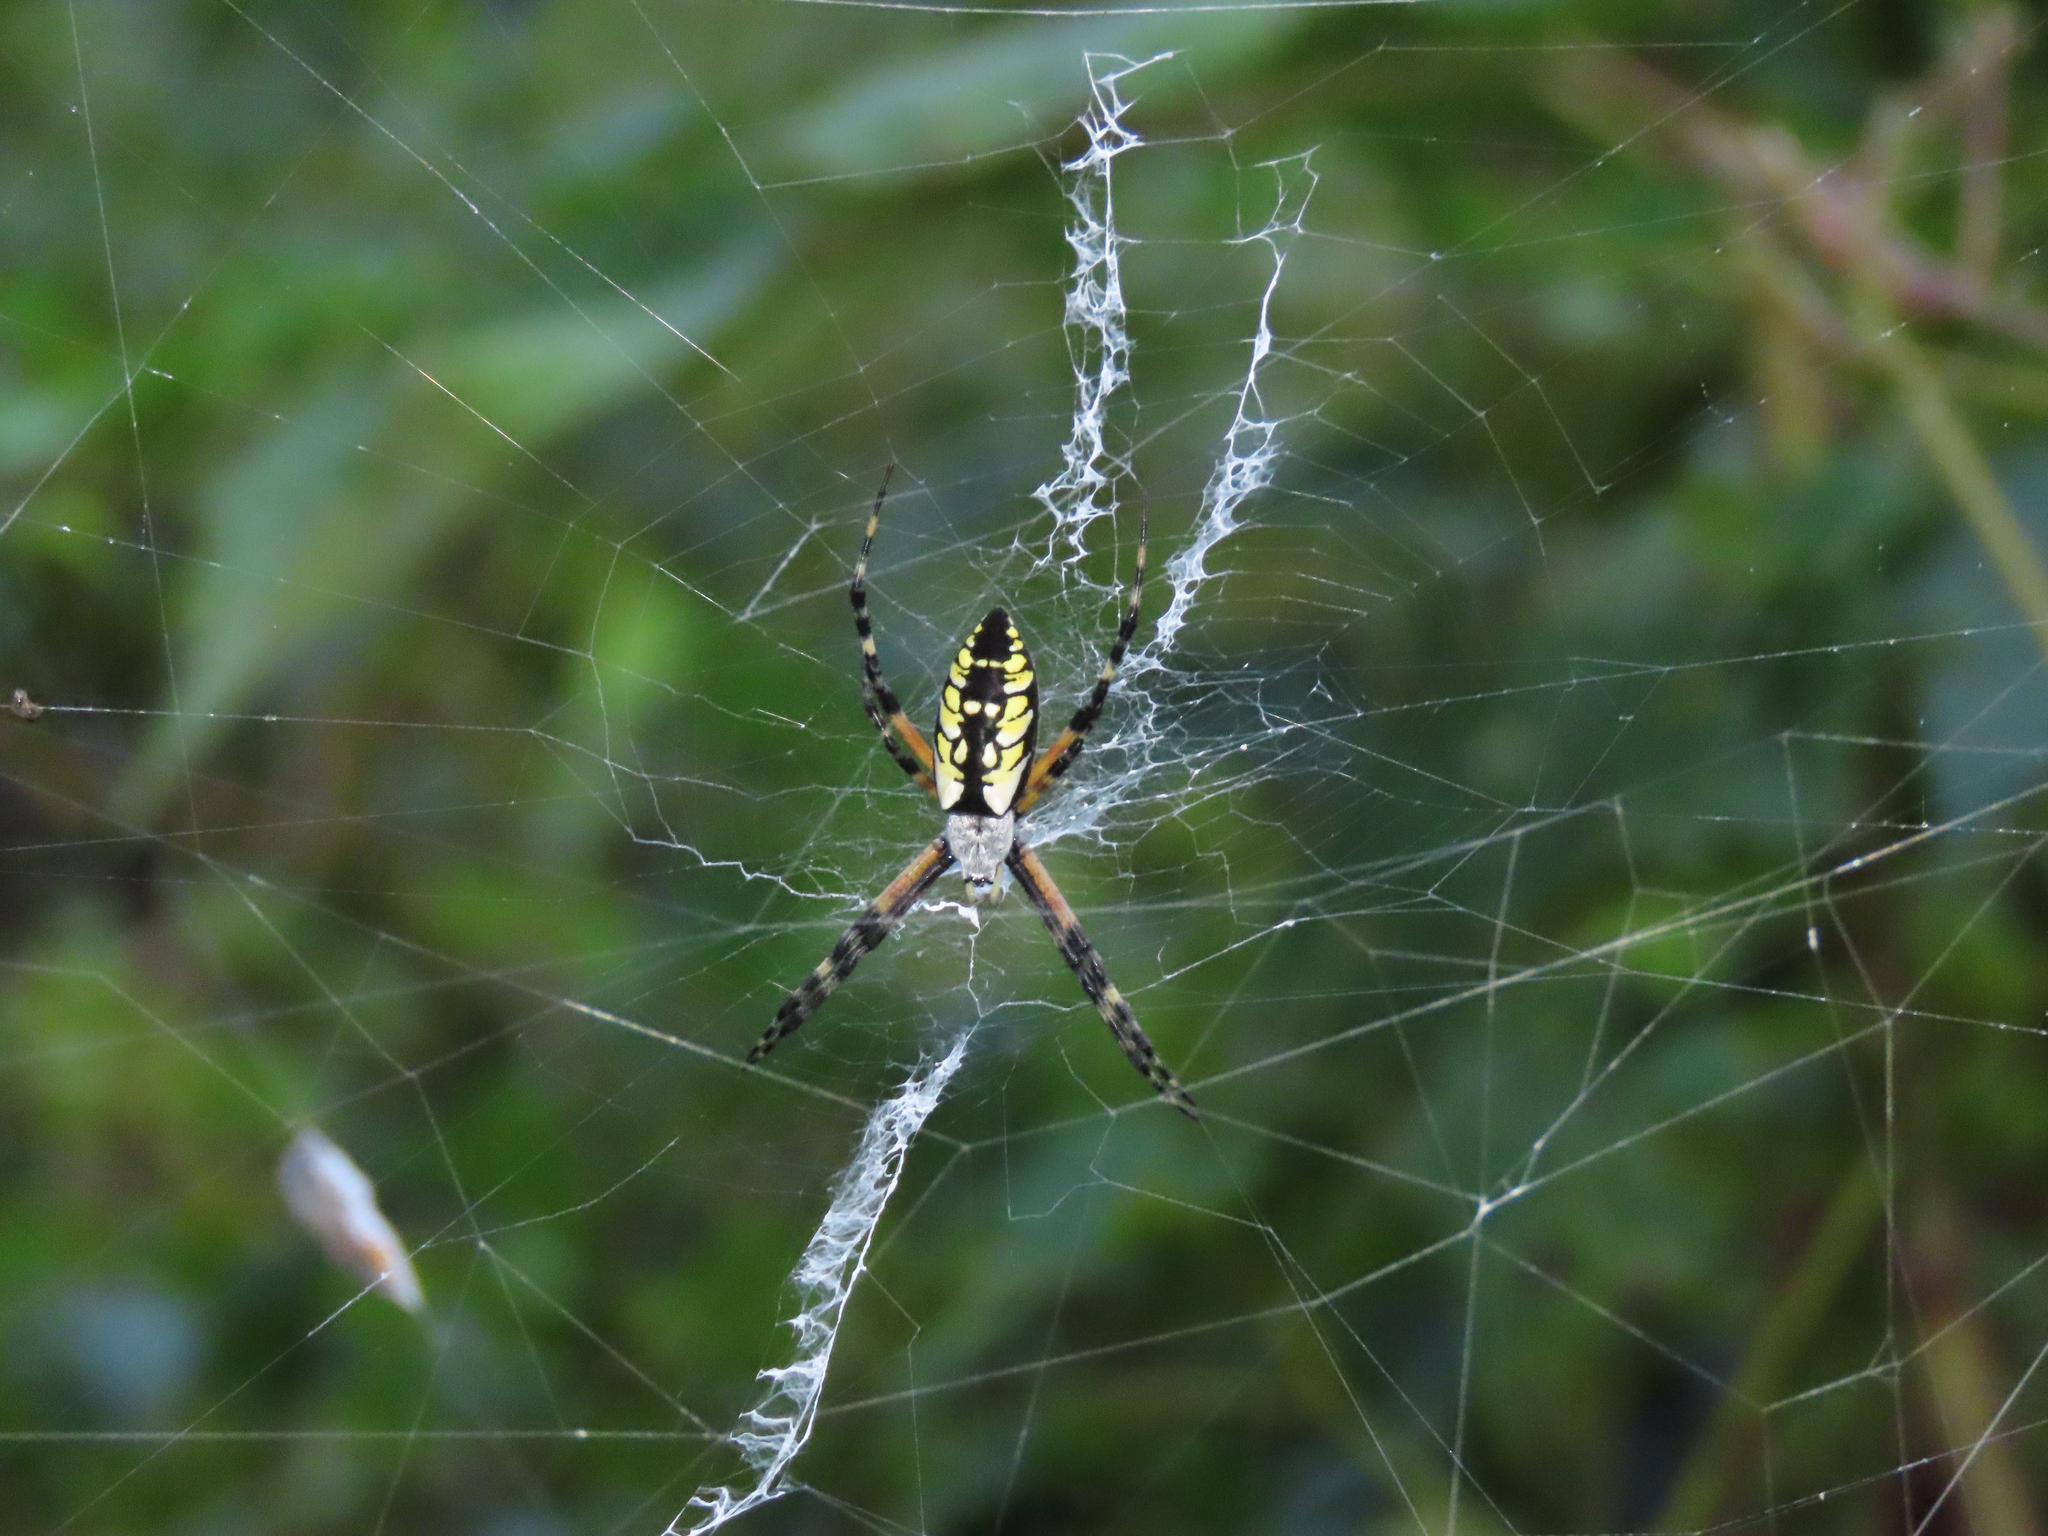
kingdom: Animalia
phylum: Arthropoda
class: Arachnida
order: Araneae
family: Araneidae
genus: Argiope
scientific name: Argiope aurantia
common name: Orb weavers
